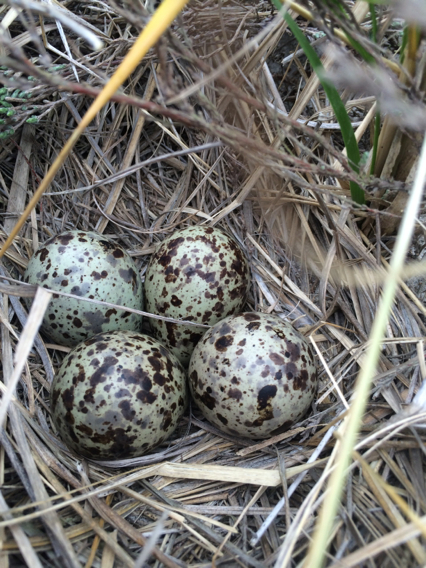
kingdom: Animalia
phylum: Chordata
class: Aves
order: Charadriiformes
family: Charadriidae
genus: Charadrius
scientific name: Charadrius vociferus
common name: Killdeer
